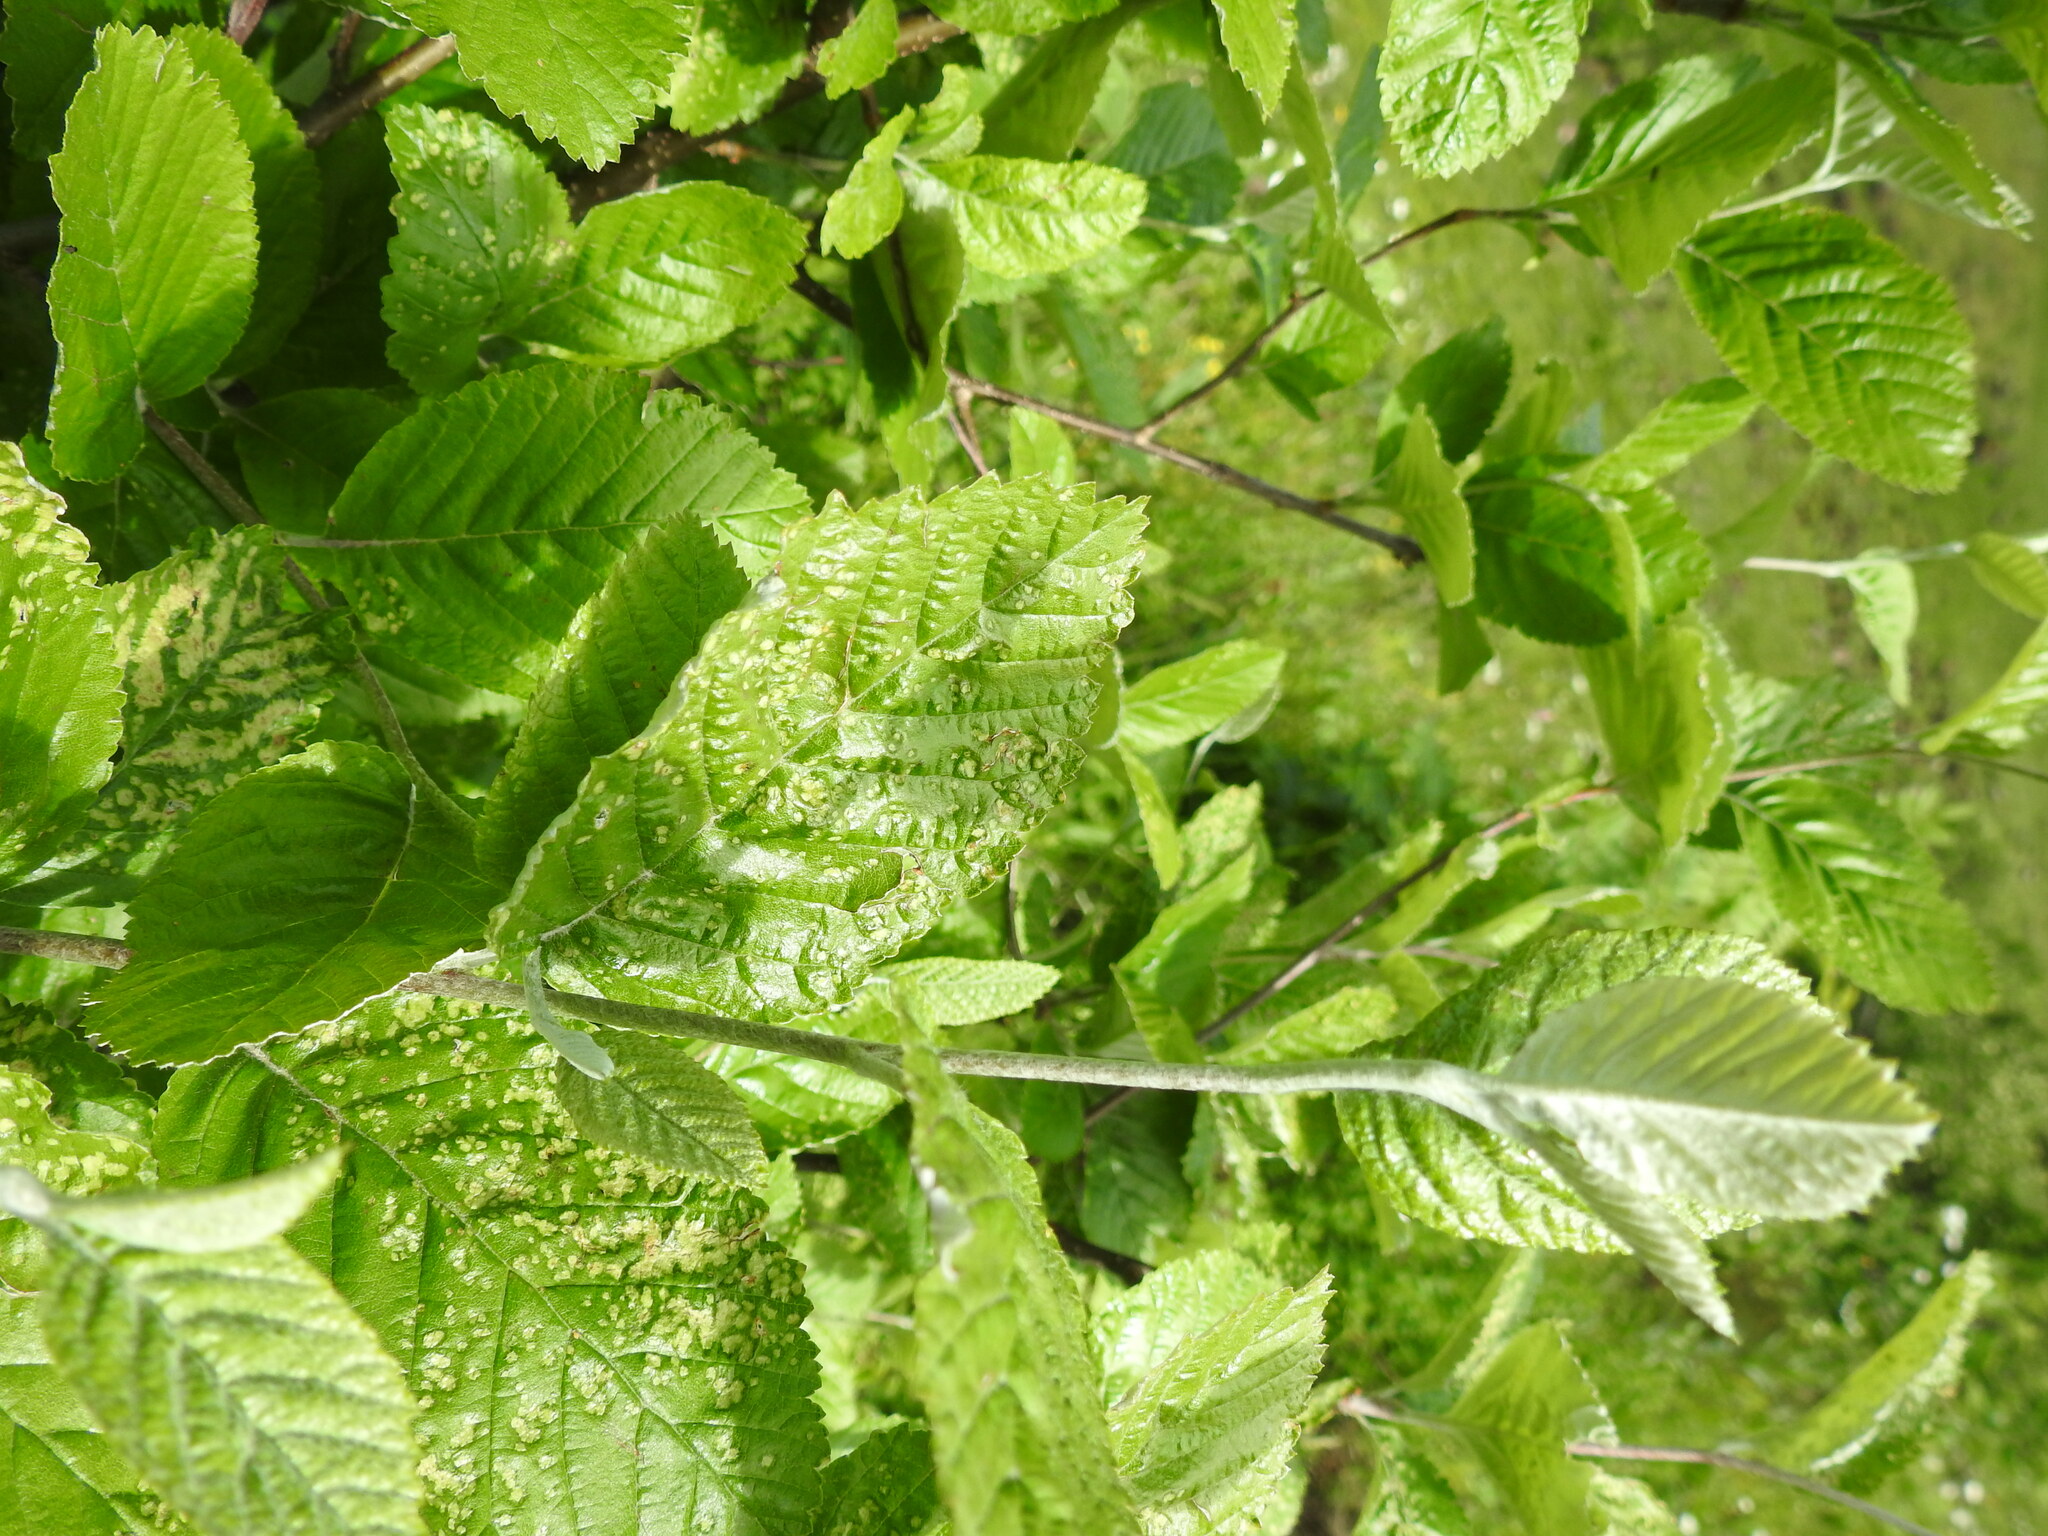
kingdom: Plantae
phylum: Tracheophyta
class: Magnoliopsida
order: Rosales
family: Rosaceae
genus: Aria
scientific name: Aria edulis
